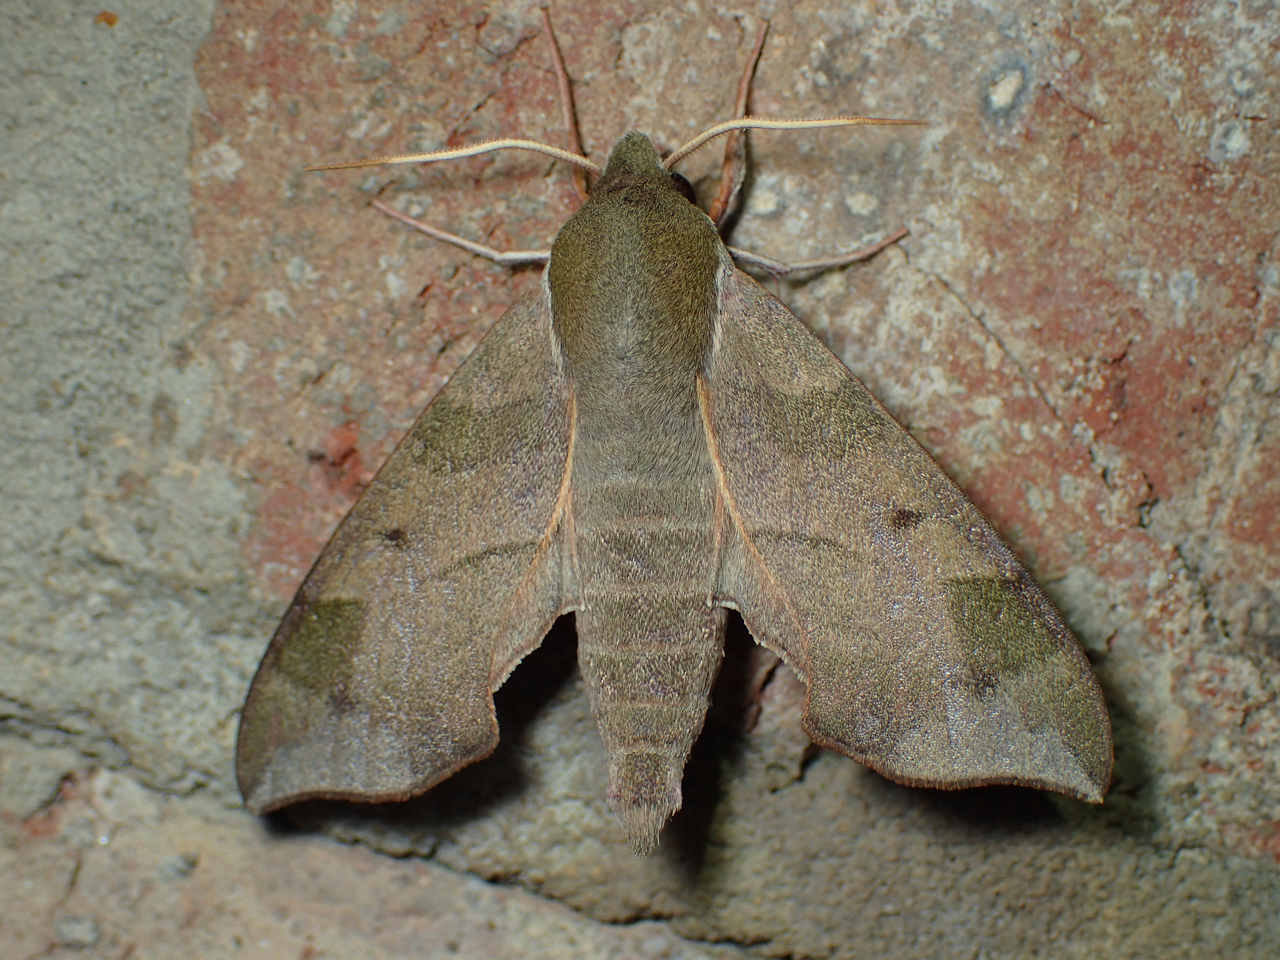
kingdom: Animalia
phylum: Arthropoda
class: Insecta
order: Lepidoptera
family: Sphingidae
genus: Darapsa
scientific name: Darapsa myron
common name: Hog sphinx
